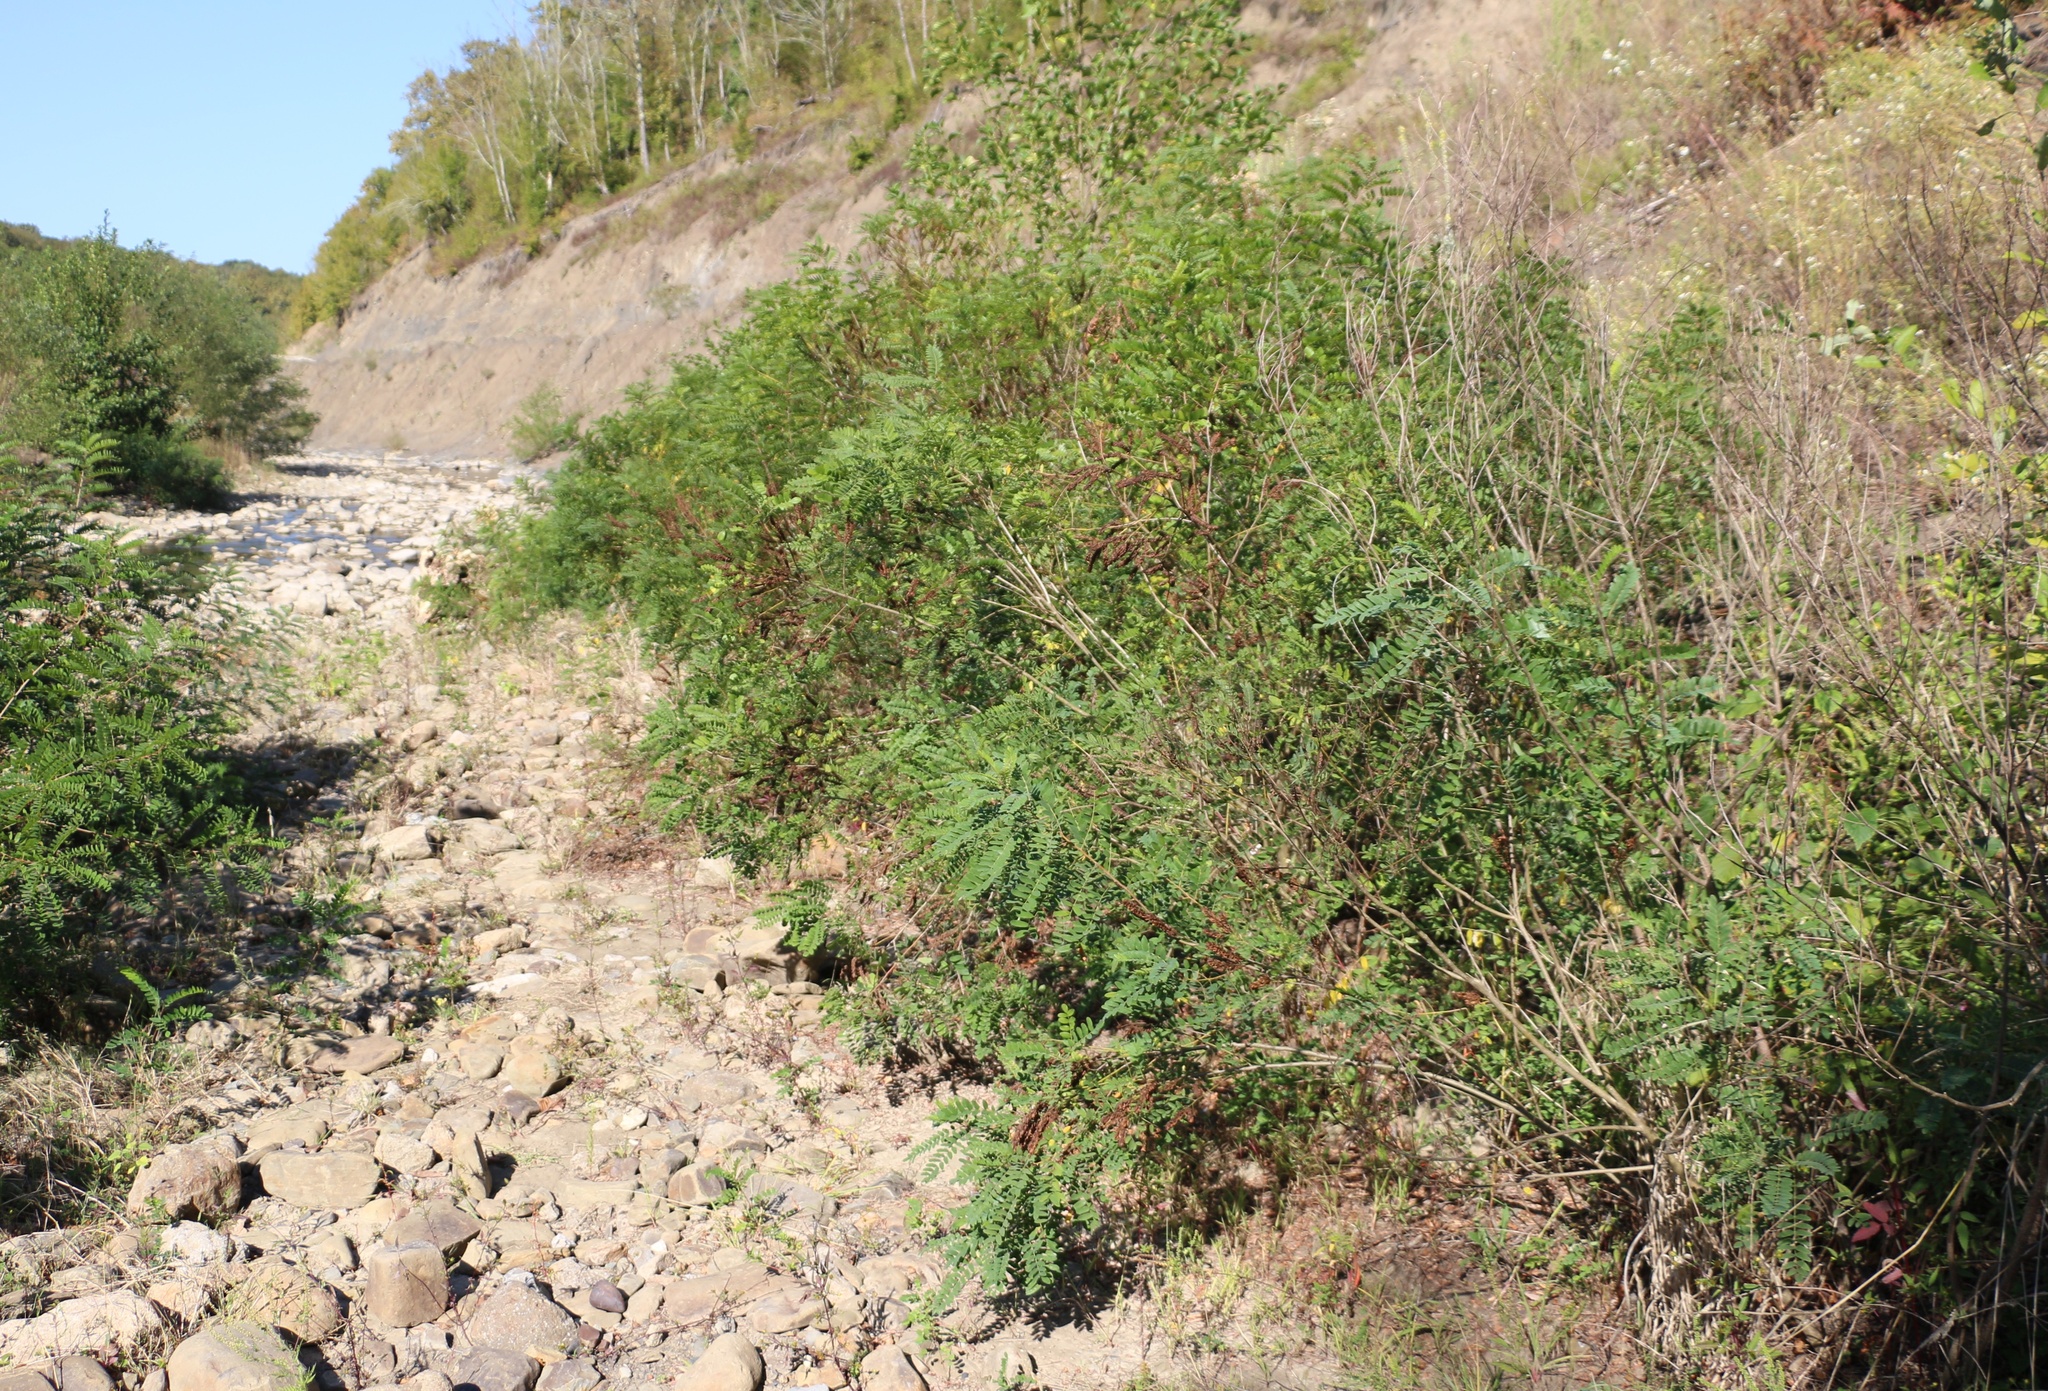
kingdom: Plantae
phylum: Tracheophyta
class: Magnoliopsida
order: Fabales
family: Fabaceae
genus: Amorpha
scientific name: Amorpha fruticosa
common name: False indigo
